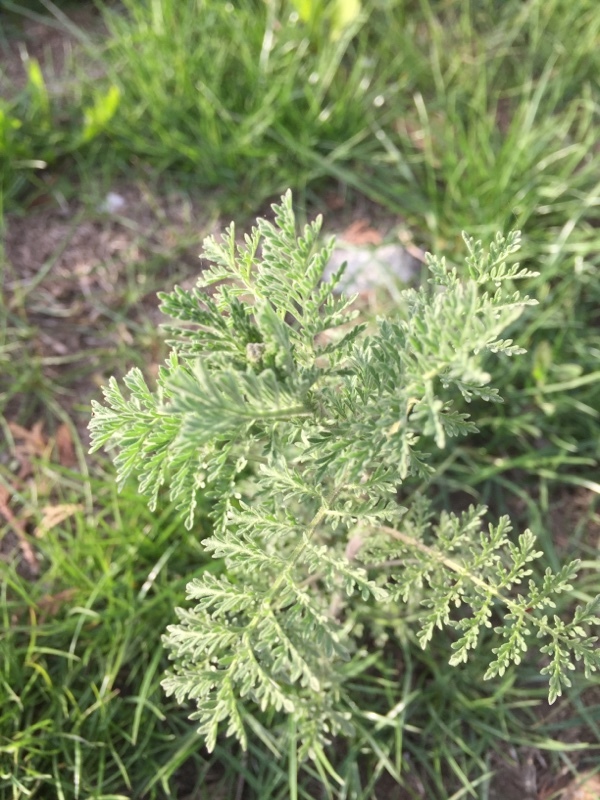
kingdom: Plantae
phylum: Tracheophyta
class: Magnoliopsida
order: Brassicales
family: Brassicaceae
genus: Descurainia
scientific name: Descurainia sophia
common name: Flixweed
